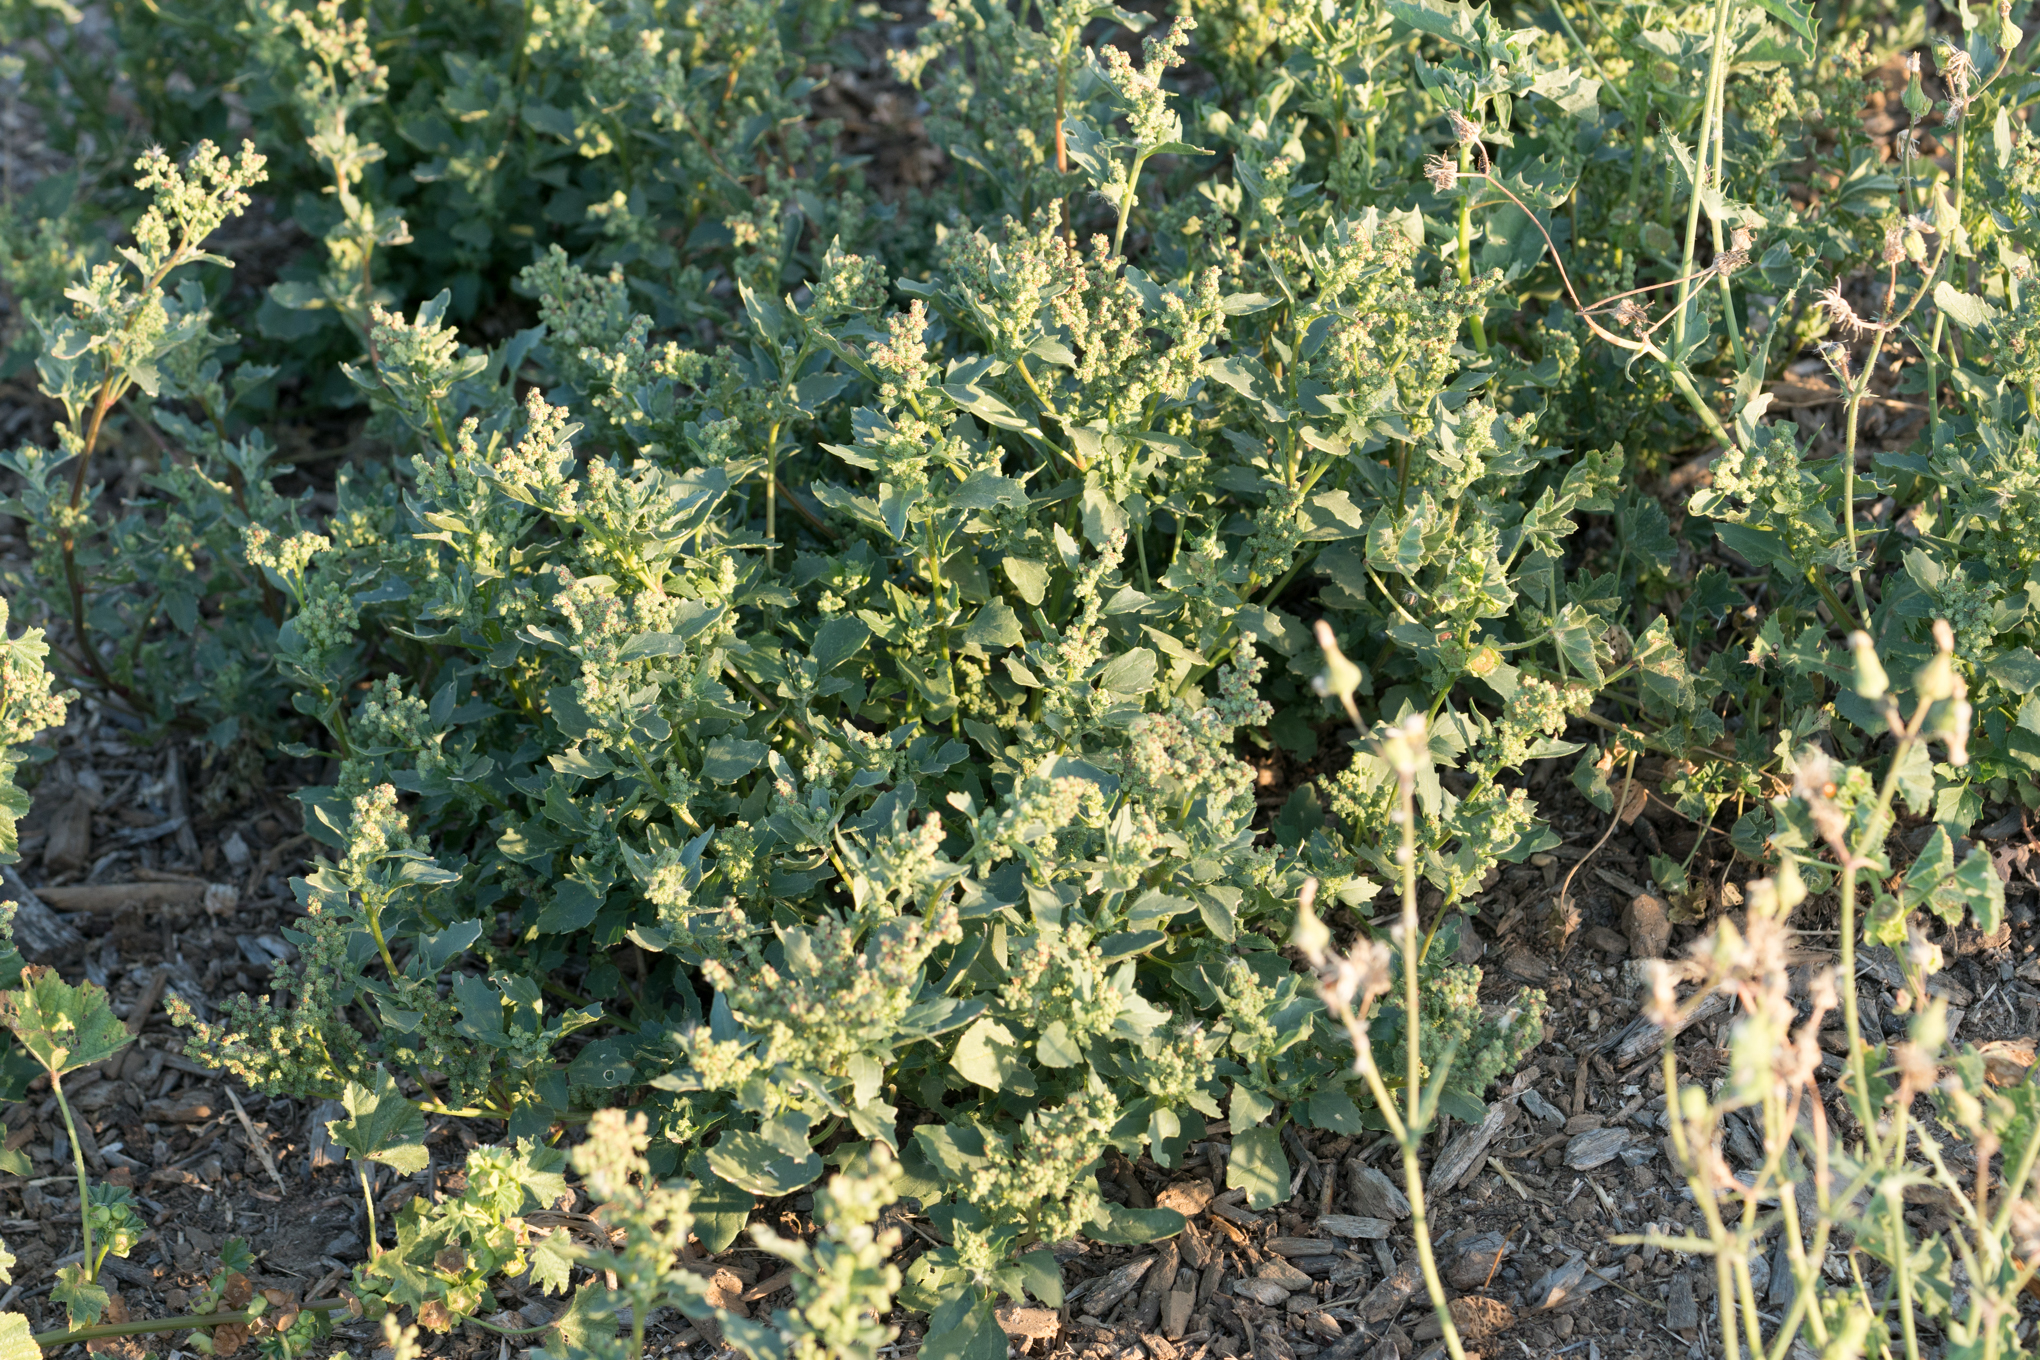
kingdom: Plantae
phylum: Tracheophyta
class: Magnoliopsida
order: Caryophyllales
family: Amaranthaceae
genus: Chenopodiastrum
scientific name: Chenopodiastrum murale
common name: Sowbane
